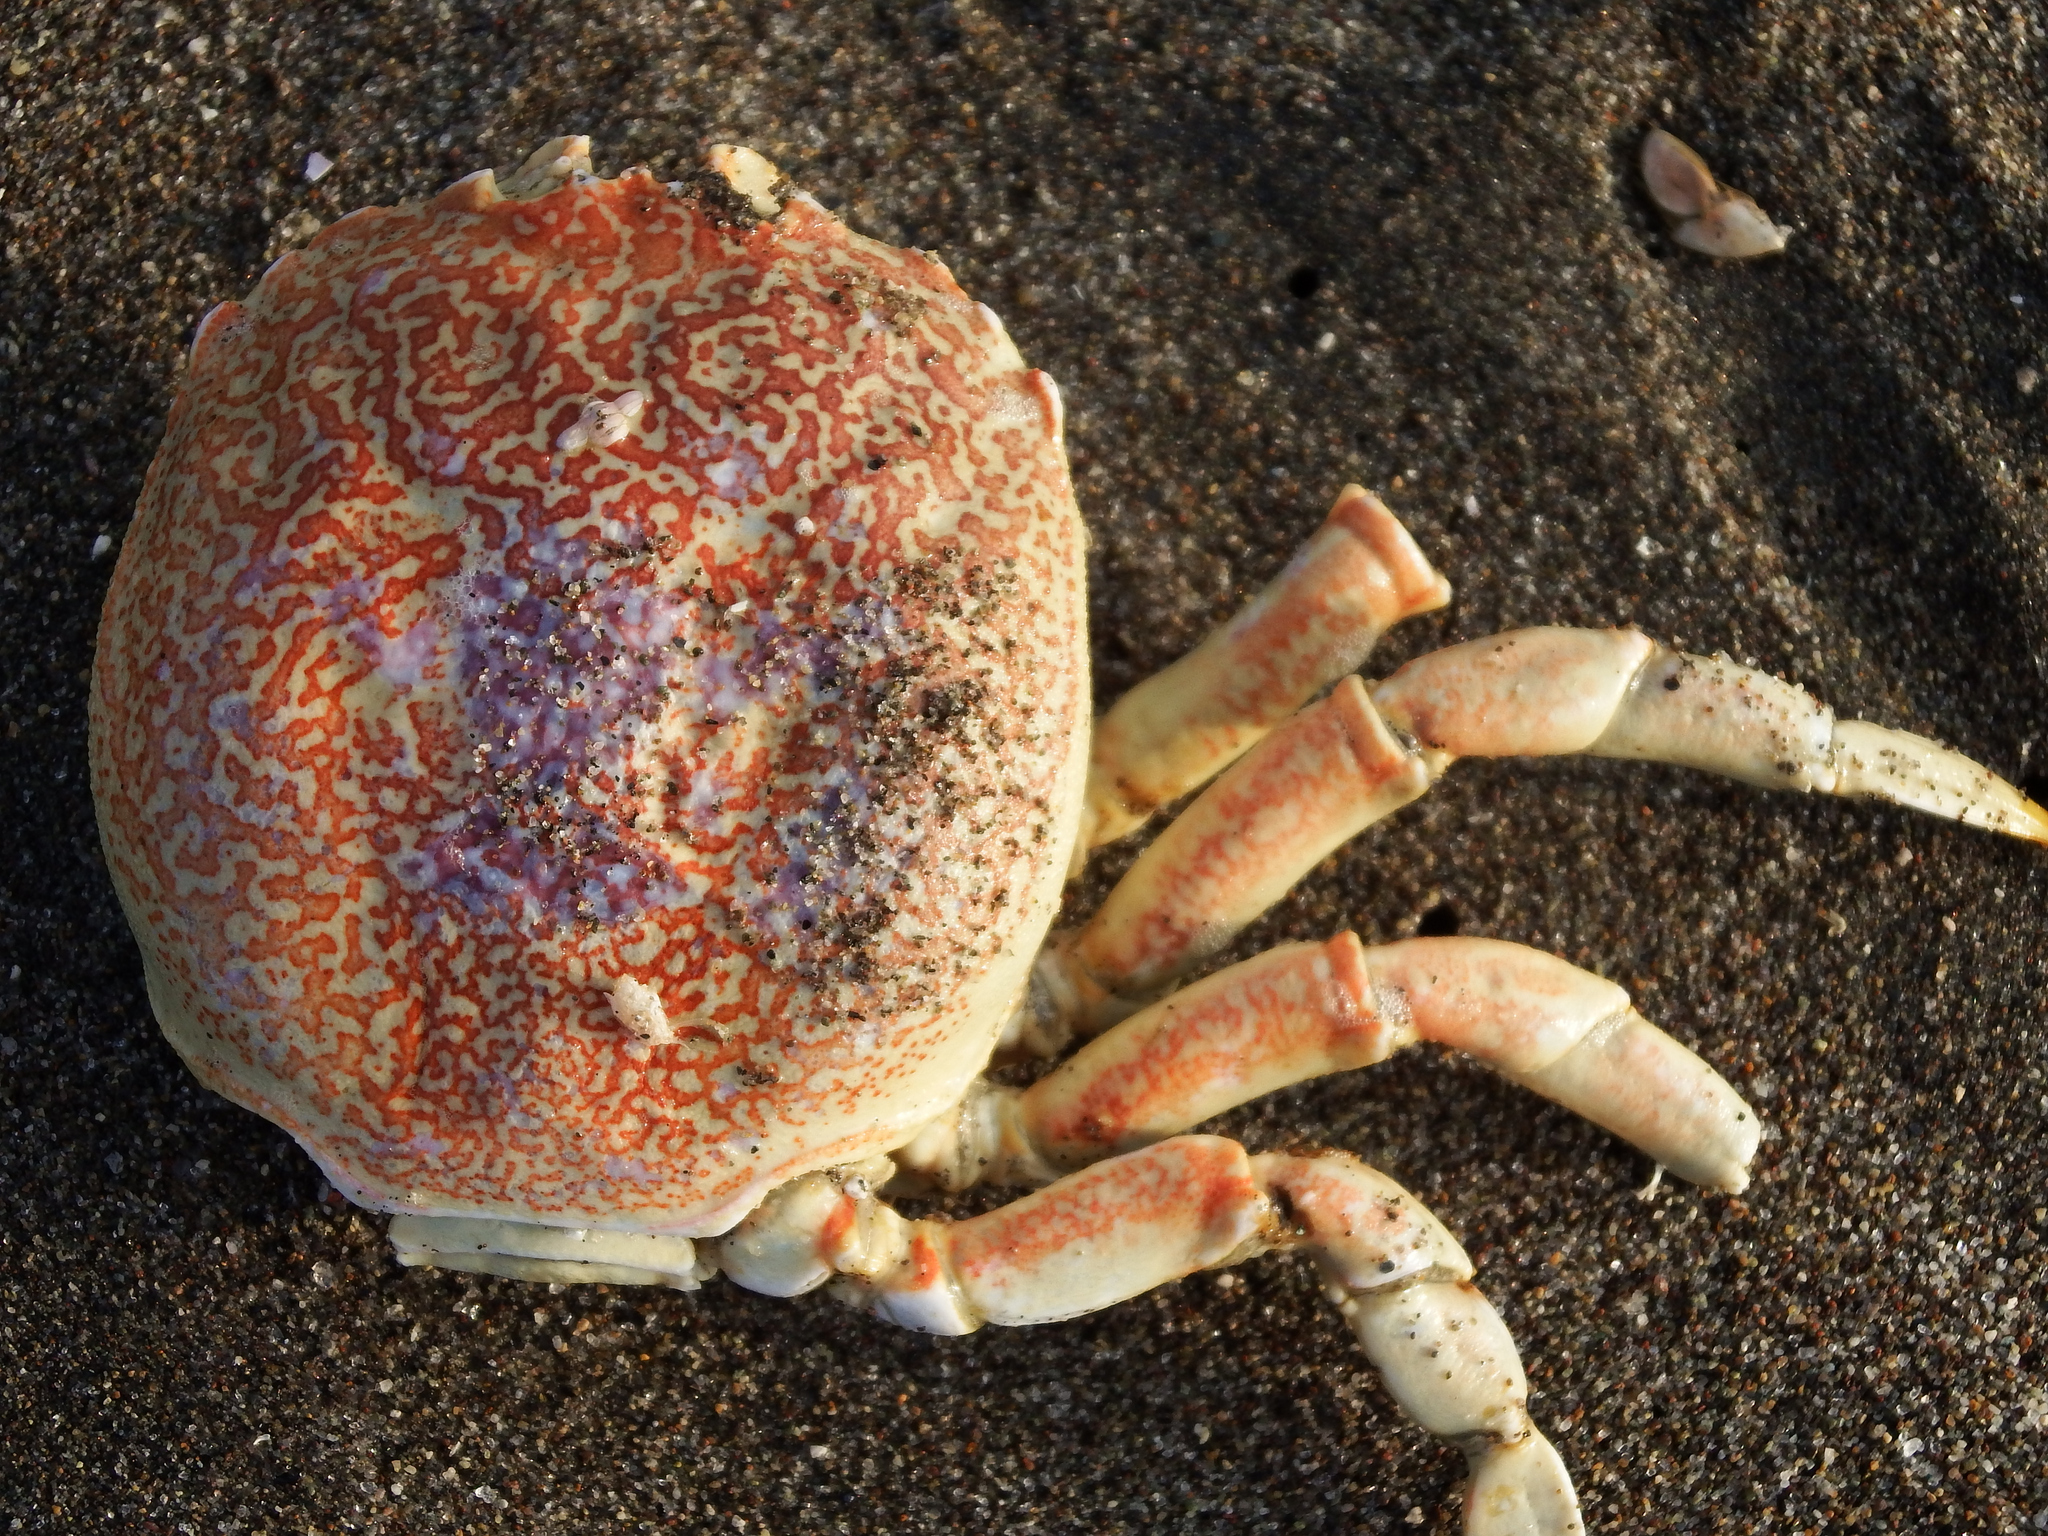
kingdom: Animalia
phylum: Arthropoda
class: Malacostraca
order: Decapoda
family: Belliidae
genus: Bellia
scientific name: Bellia picta
